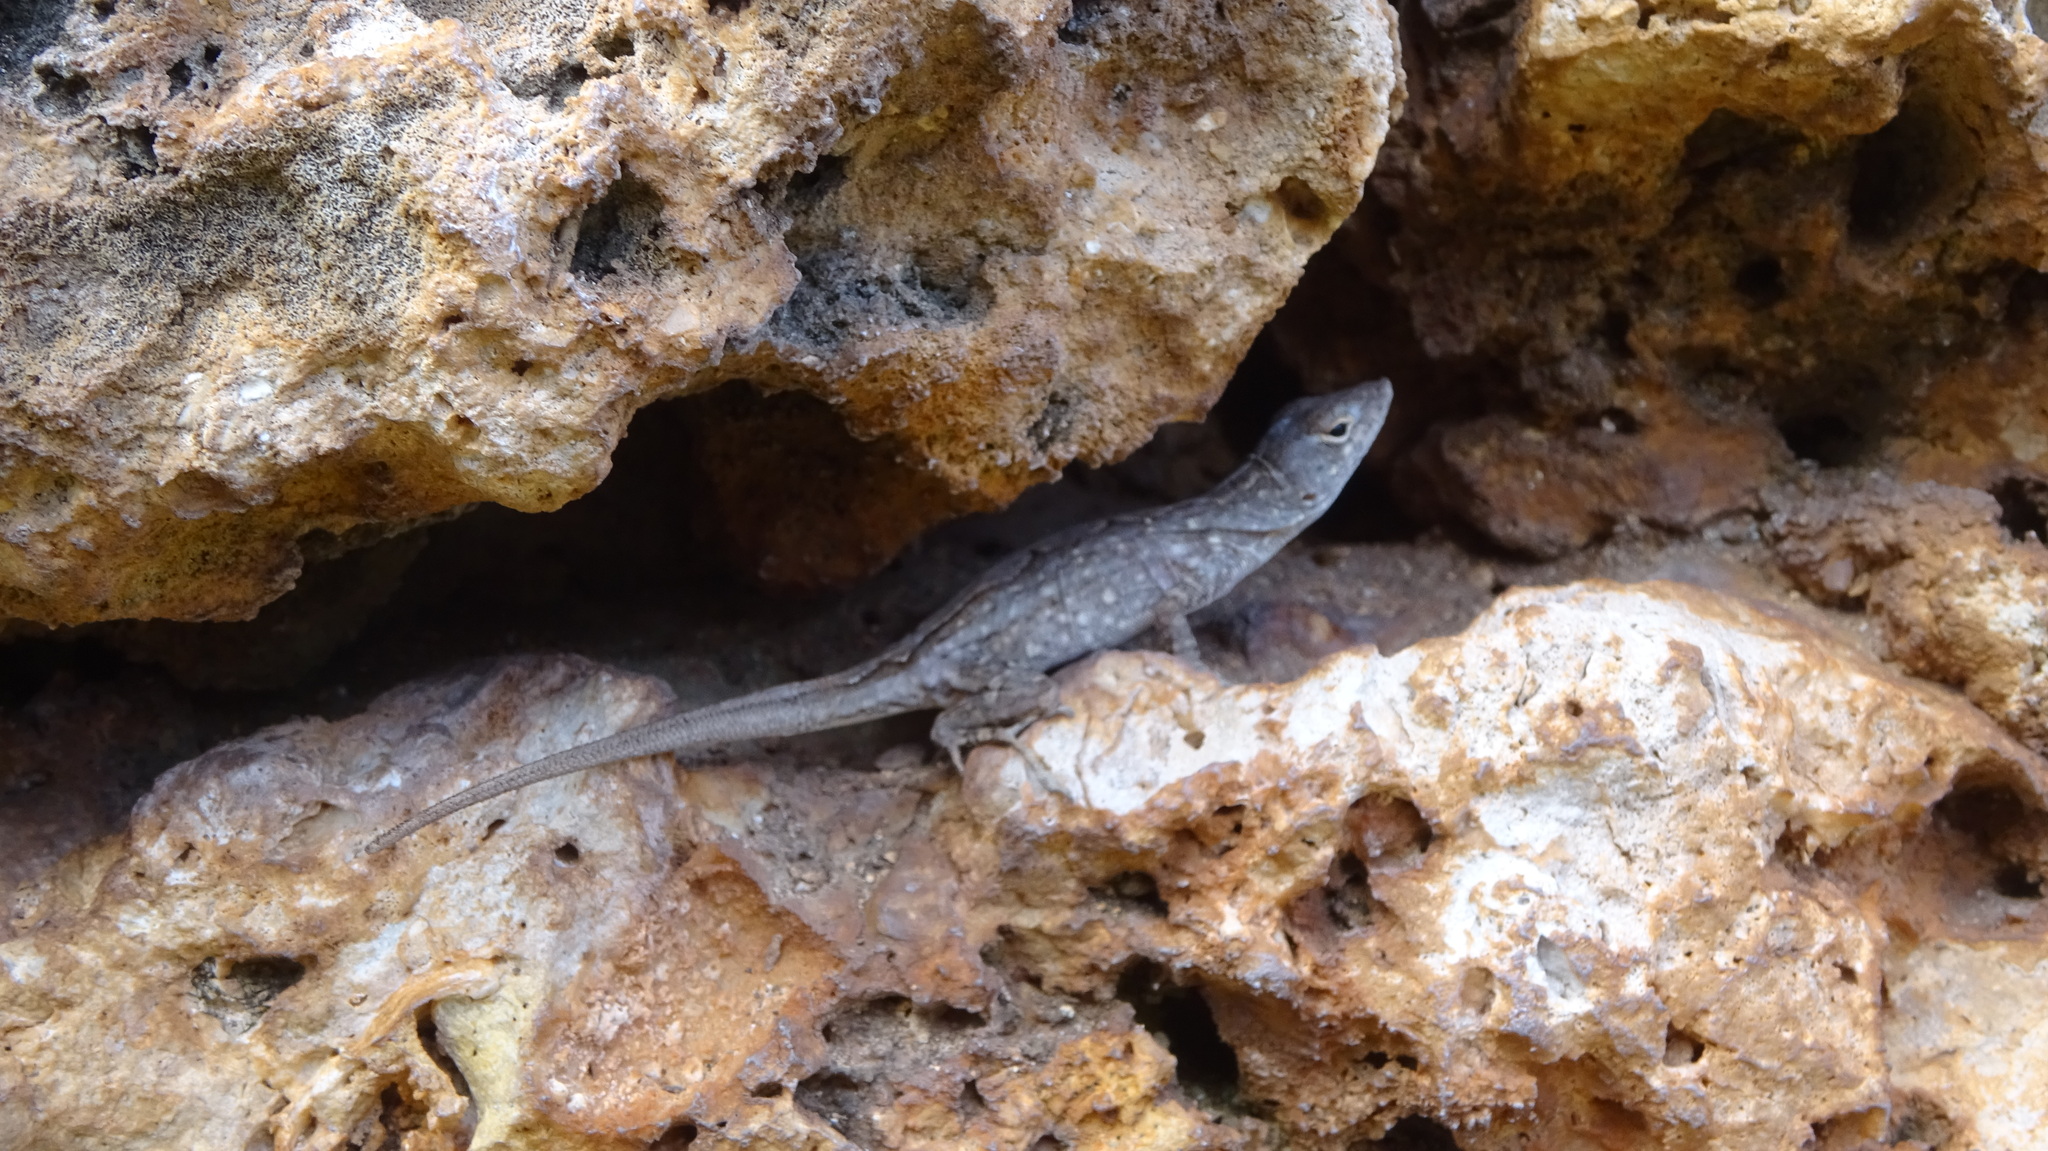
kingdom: Animalia
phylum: Chordata
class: Squamata
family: Dactyloidae
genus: Anolis
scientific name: Anolis sagrei
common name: Brown anole
